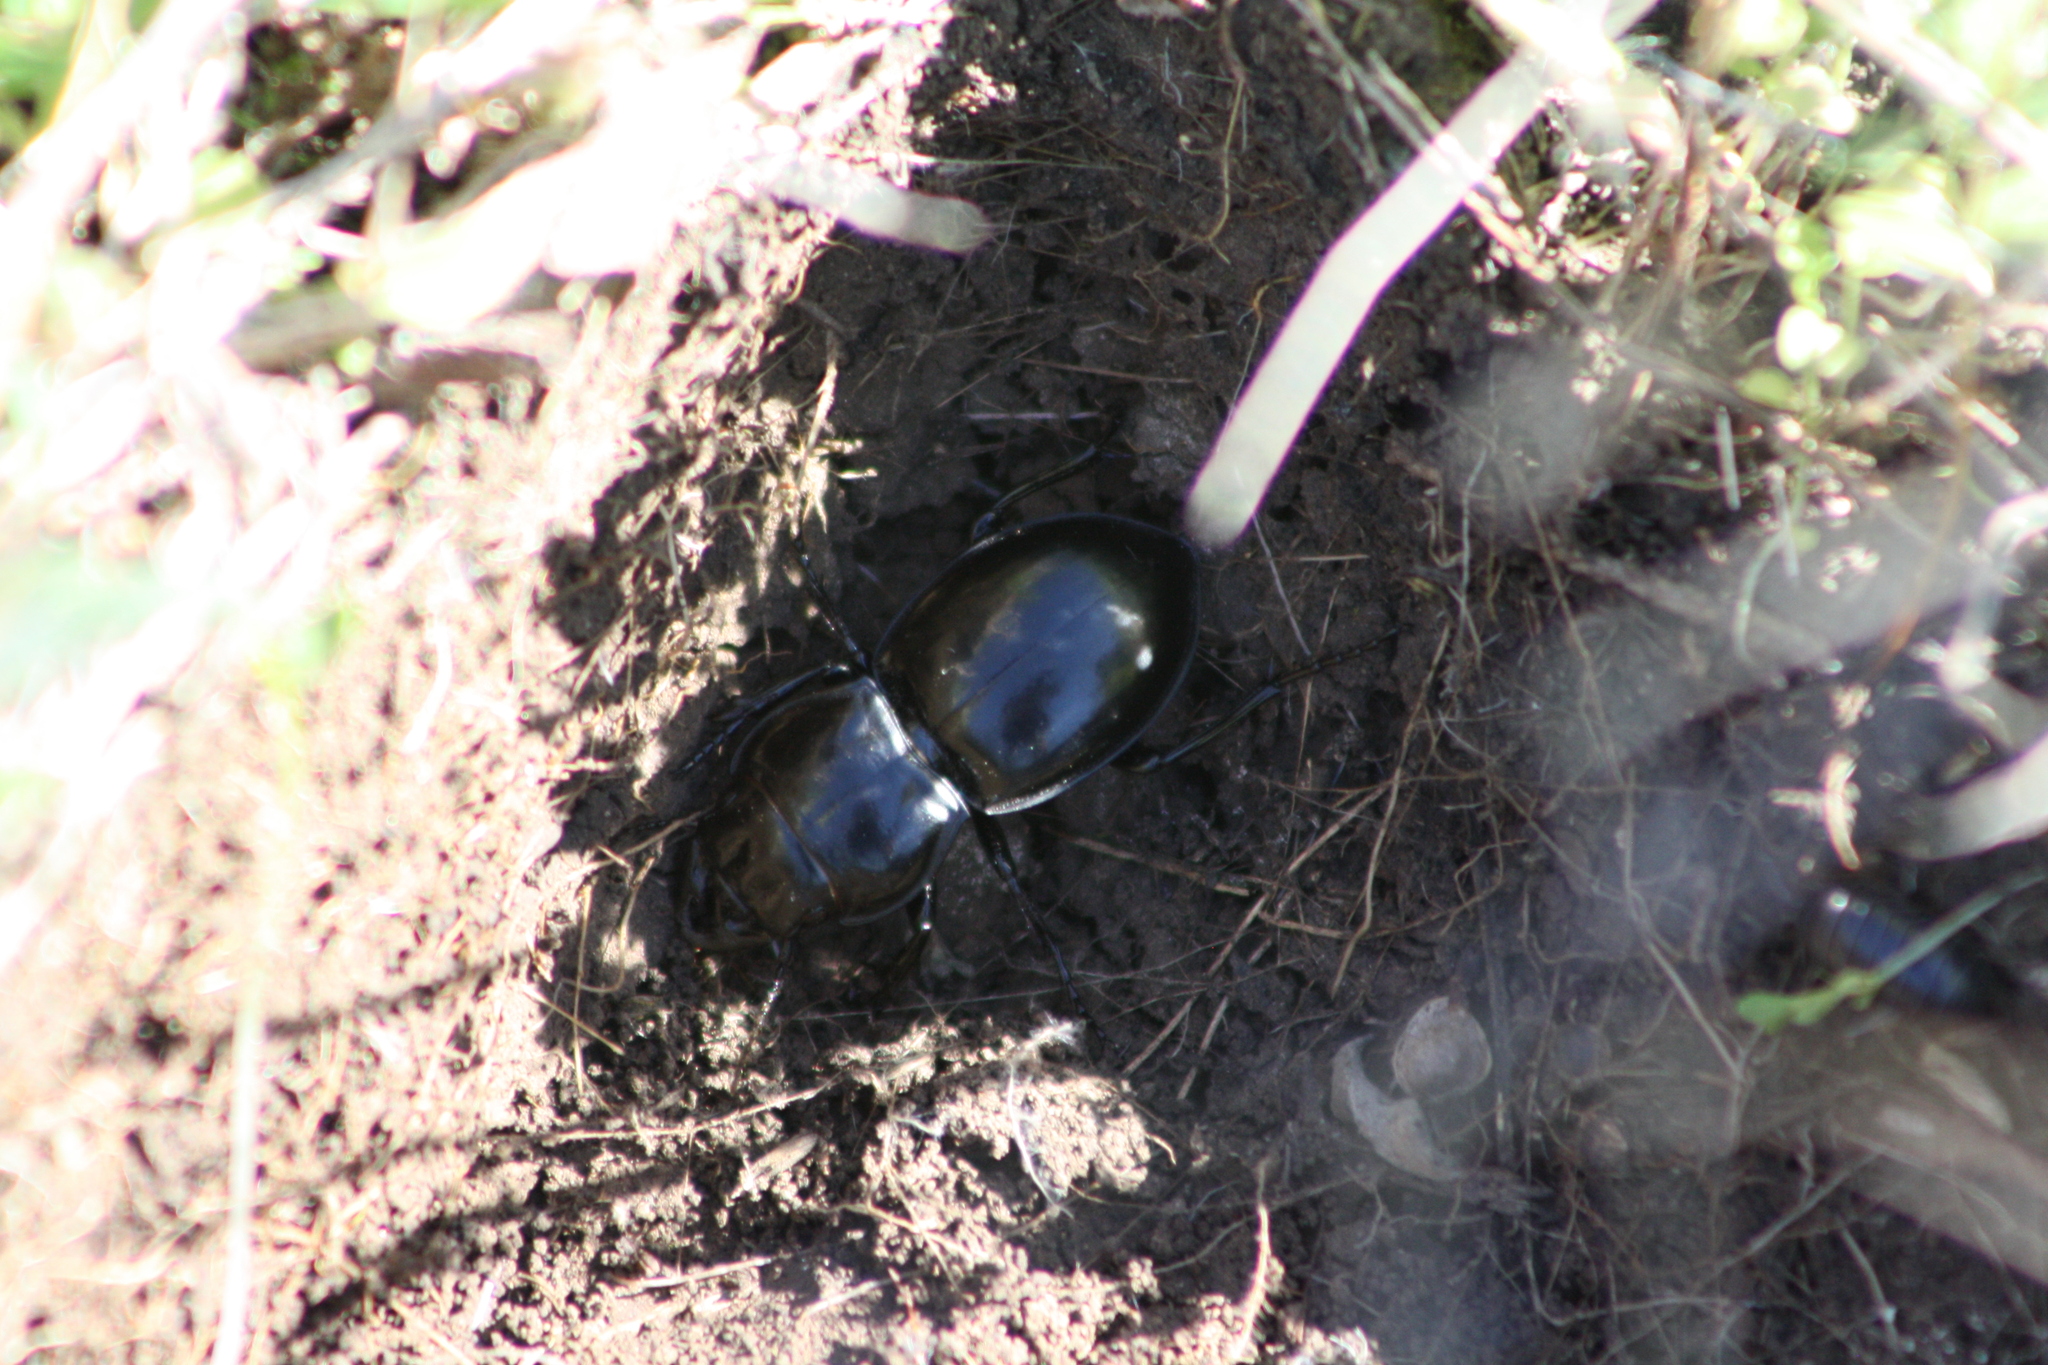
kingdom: Animalia
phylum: Arthropoda
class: Insecta
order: Coleoptera
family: Carabidae
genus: Pasimachus
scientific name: Pasimachus californicus
